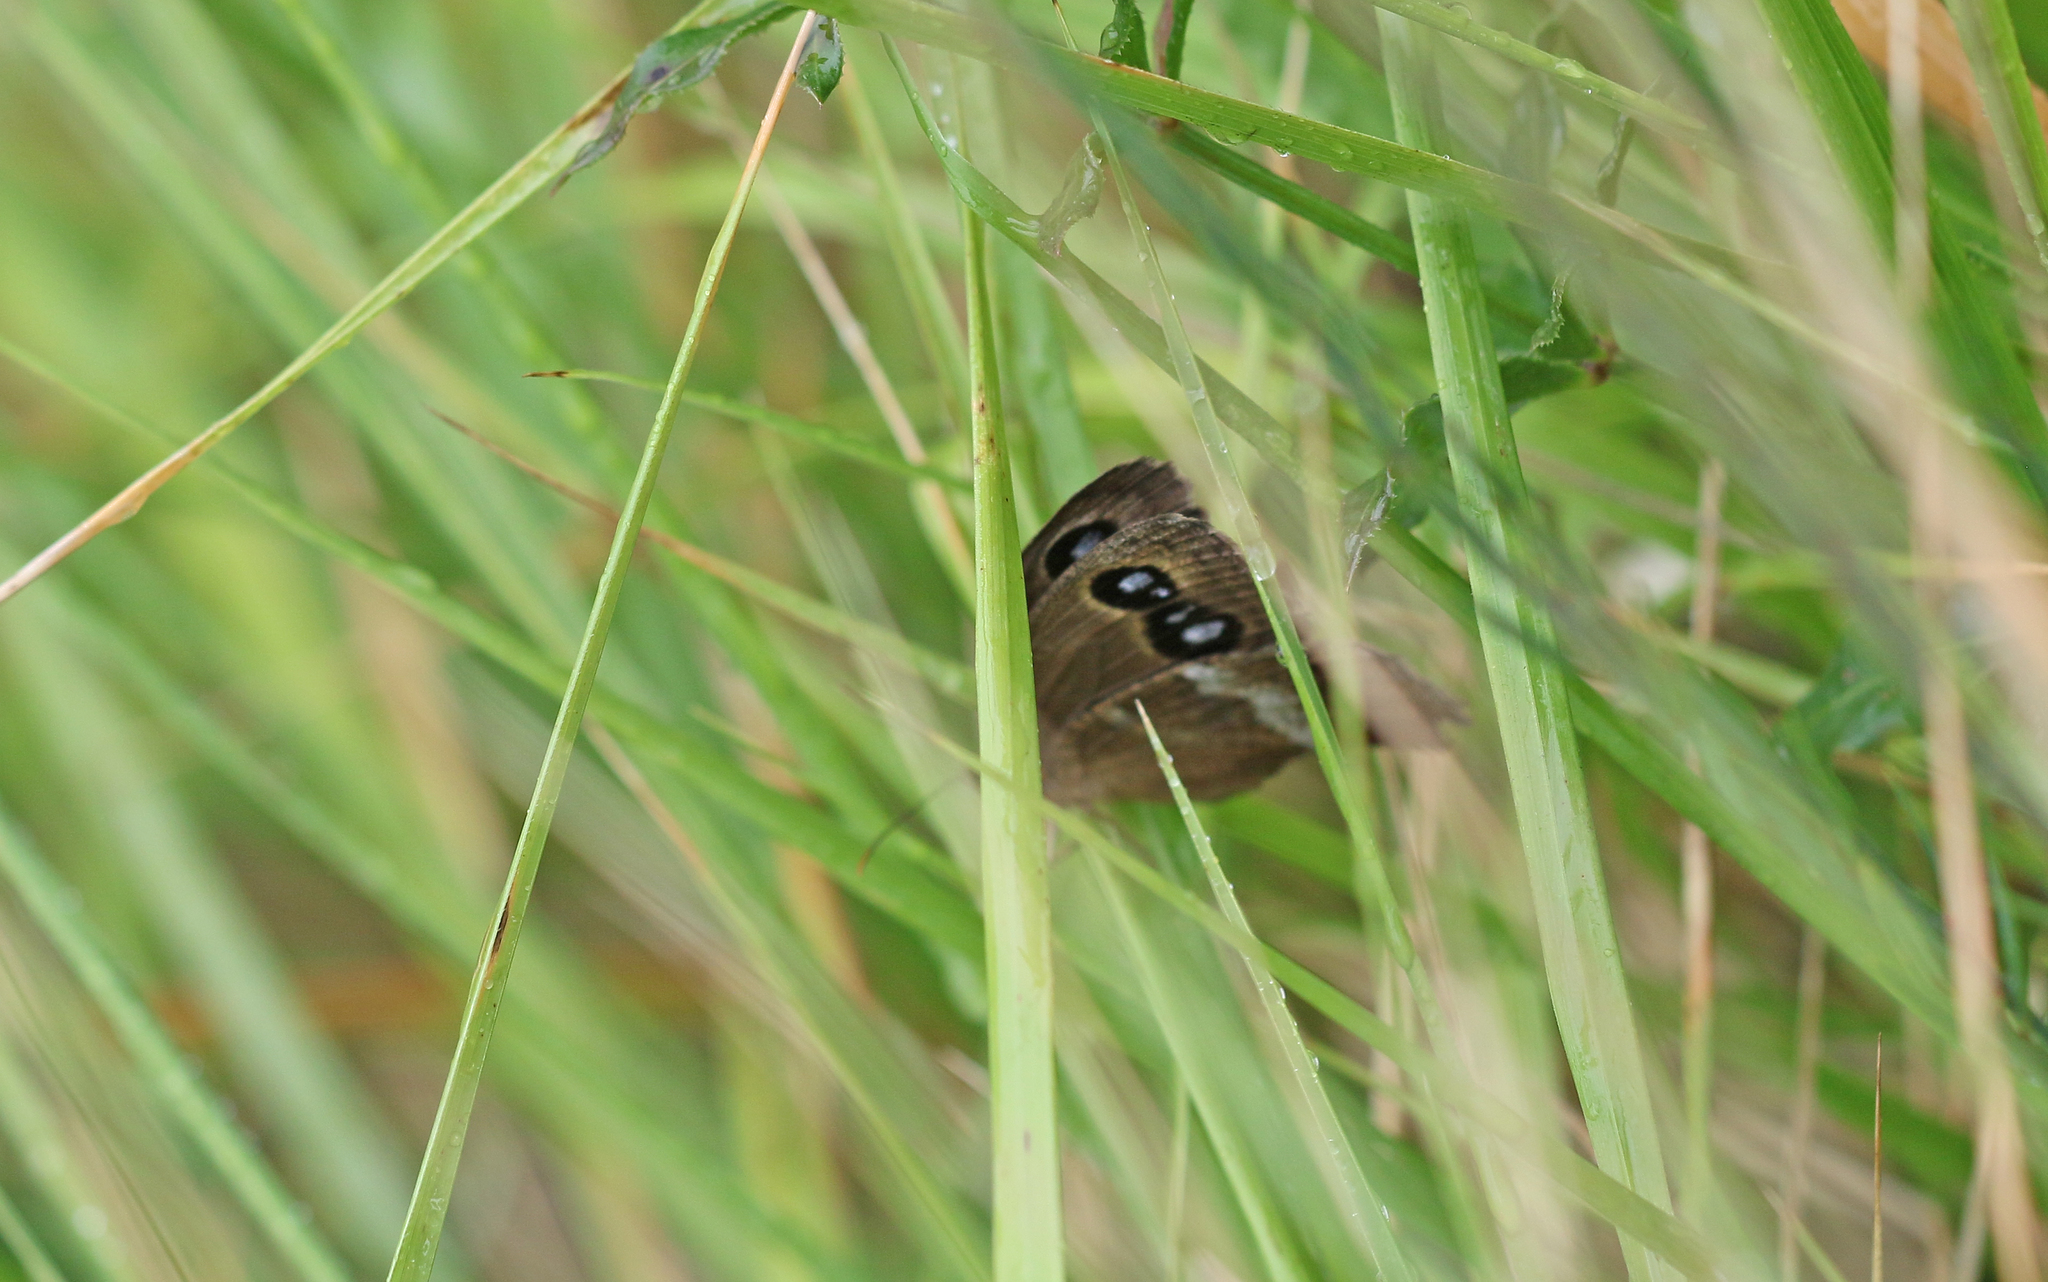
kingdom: Animalia
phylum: Arthropoda
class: Insecta
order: Lepidoptera
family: Nymphalidae
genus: Minois
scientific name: Minois dryas
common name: Dryad
